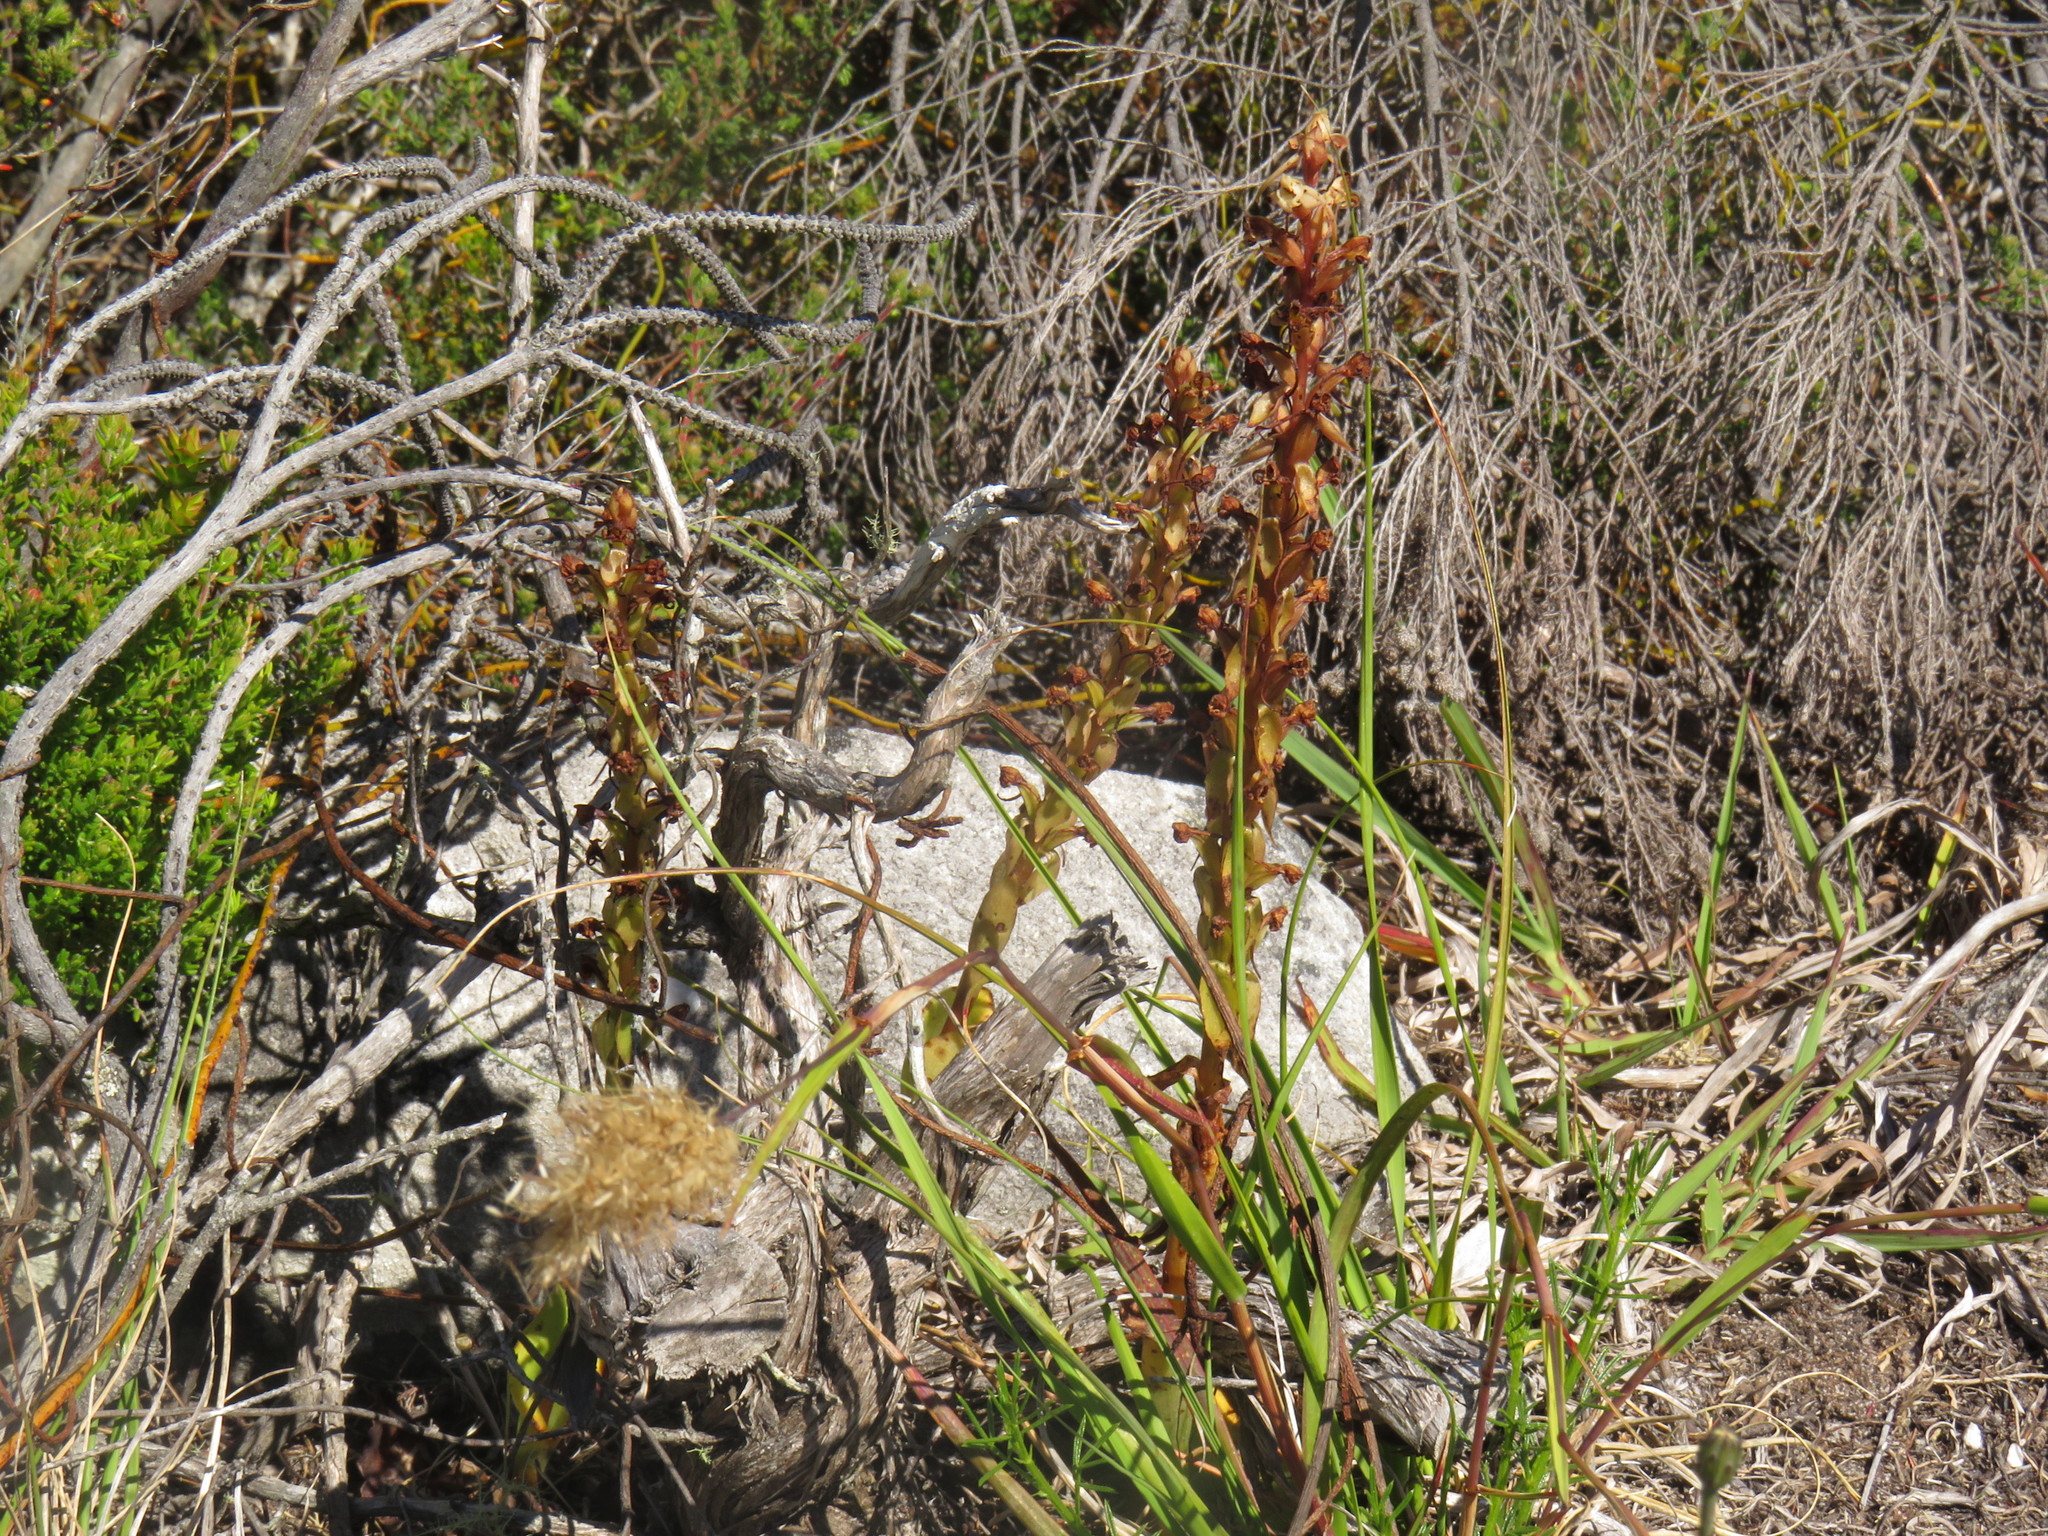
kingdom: Plantae
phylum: Tracheophyta
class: Liliopsida
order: Asparagales
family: Orchidaceae
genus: Satyrium
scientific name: Satyrium humile
